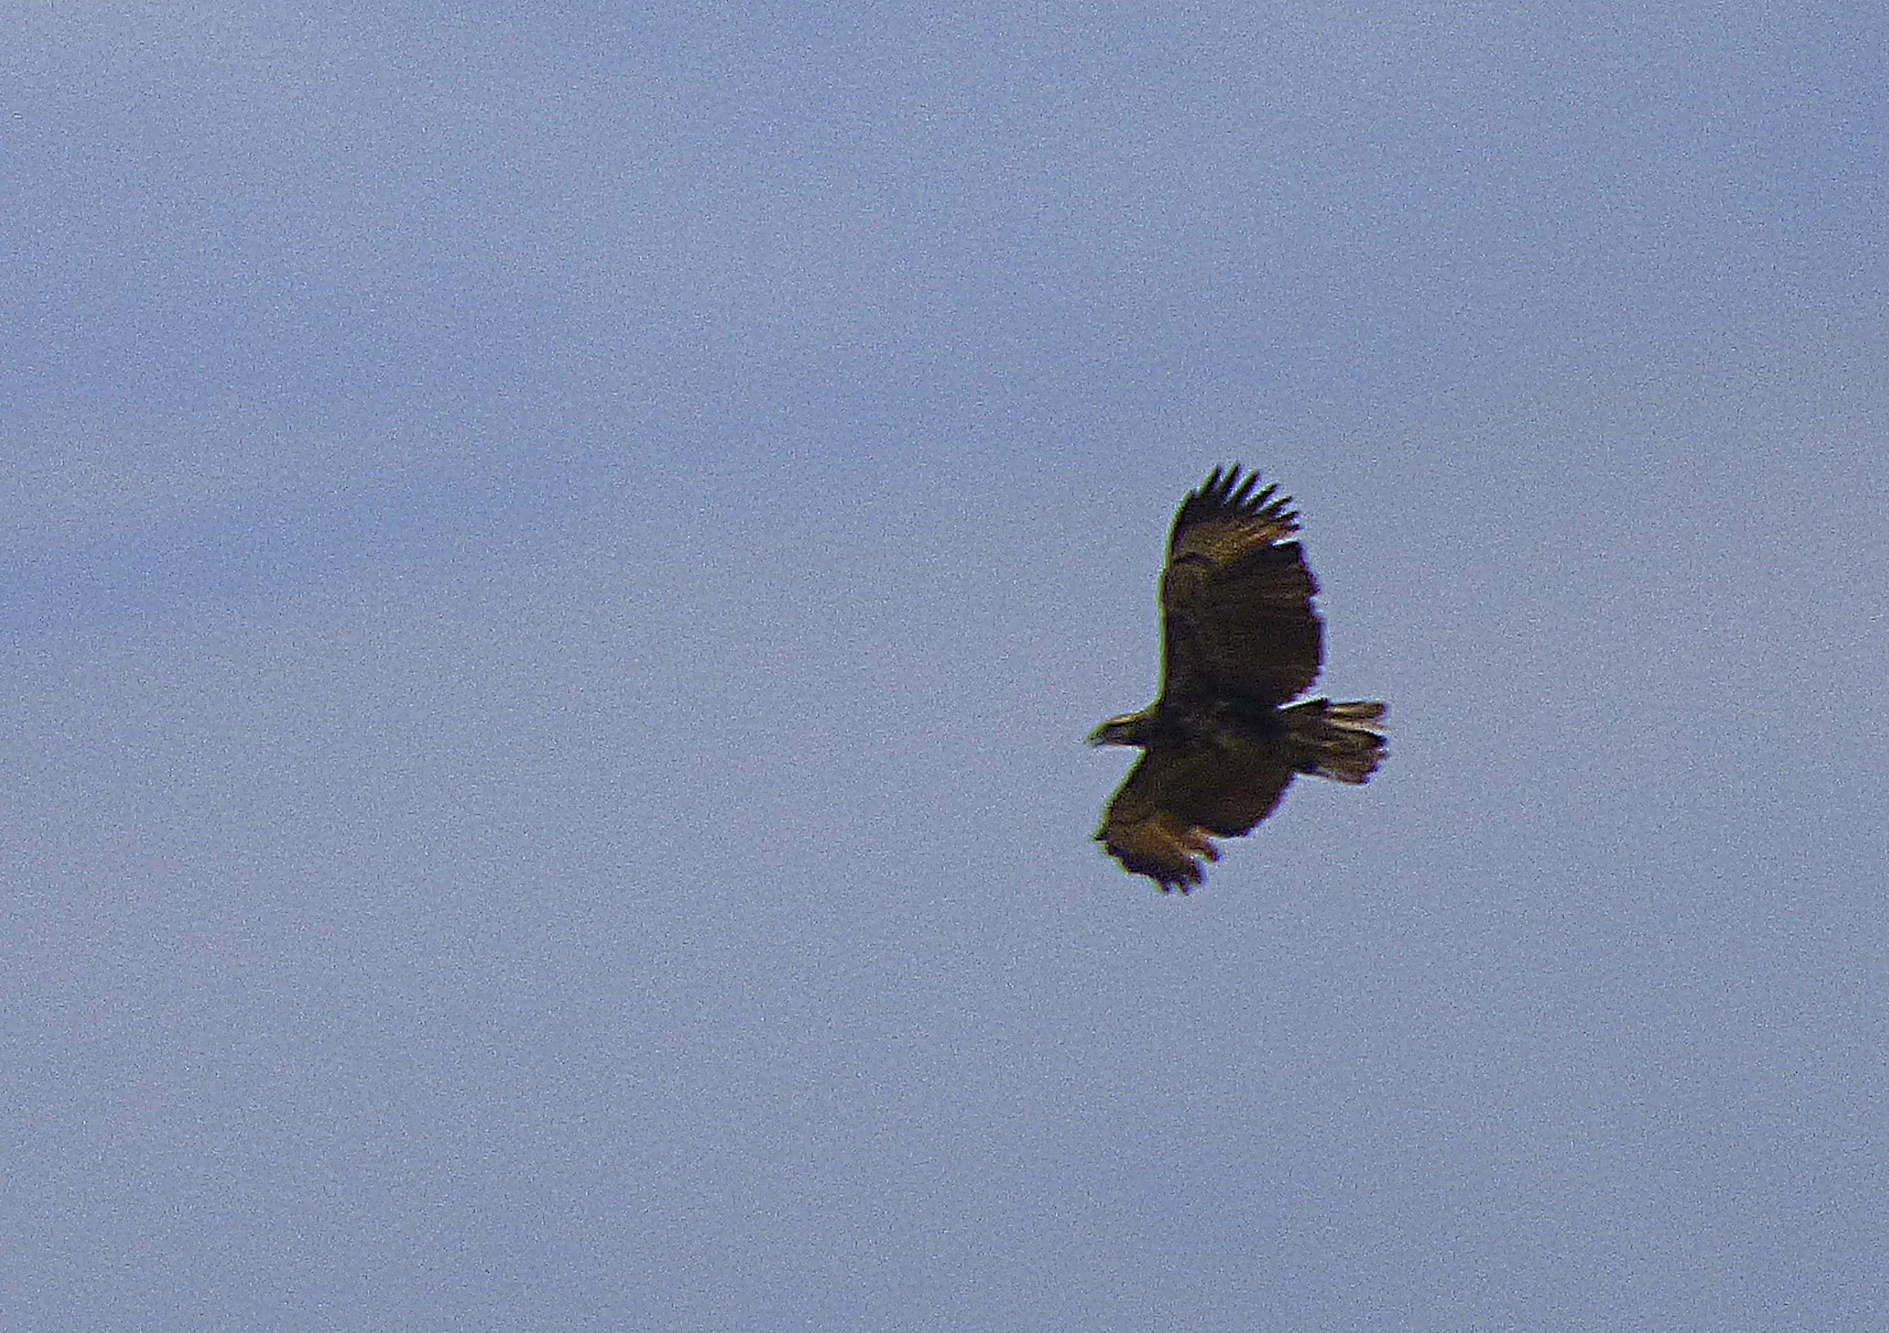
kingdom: Animalia
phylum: Chordata
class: Aves
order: Accipitriformes
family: Accipitridae
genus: Buteogallus
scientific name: Buteogallus urubitinga
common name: Great black hawk
